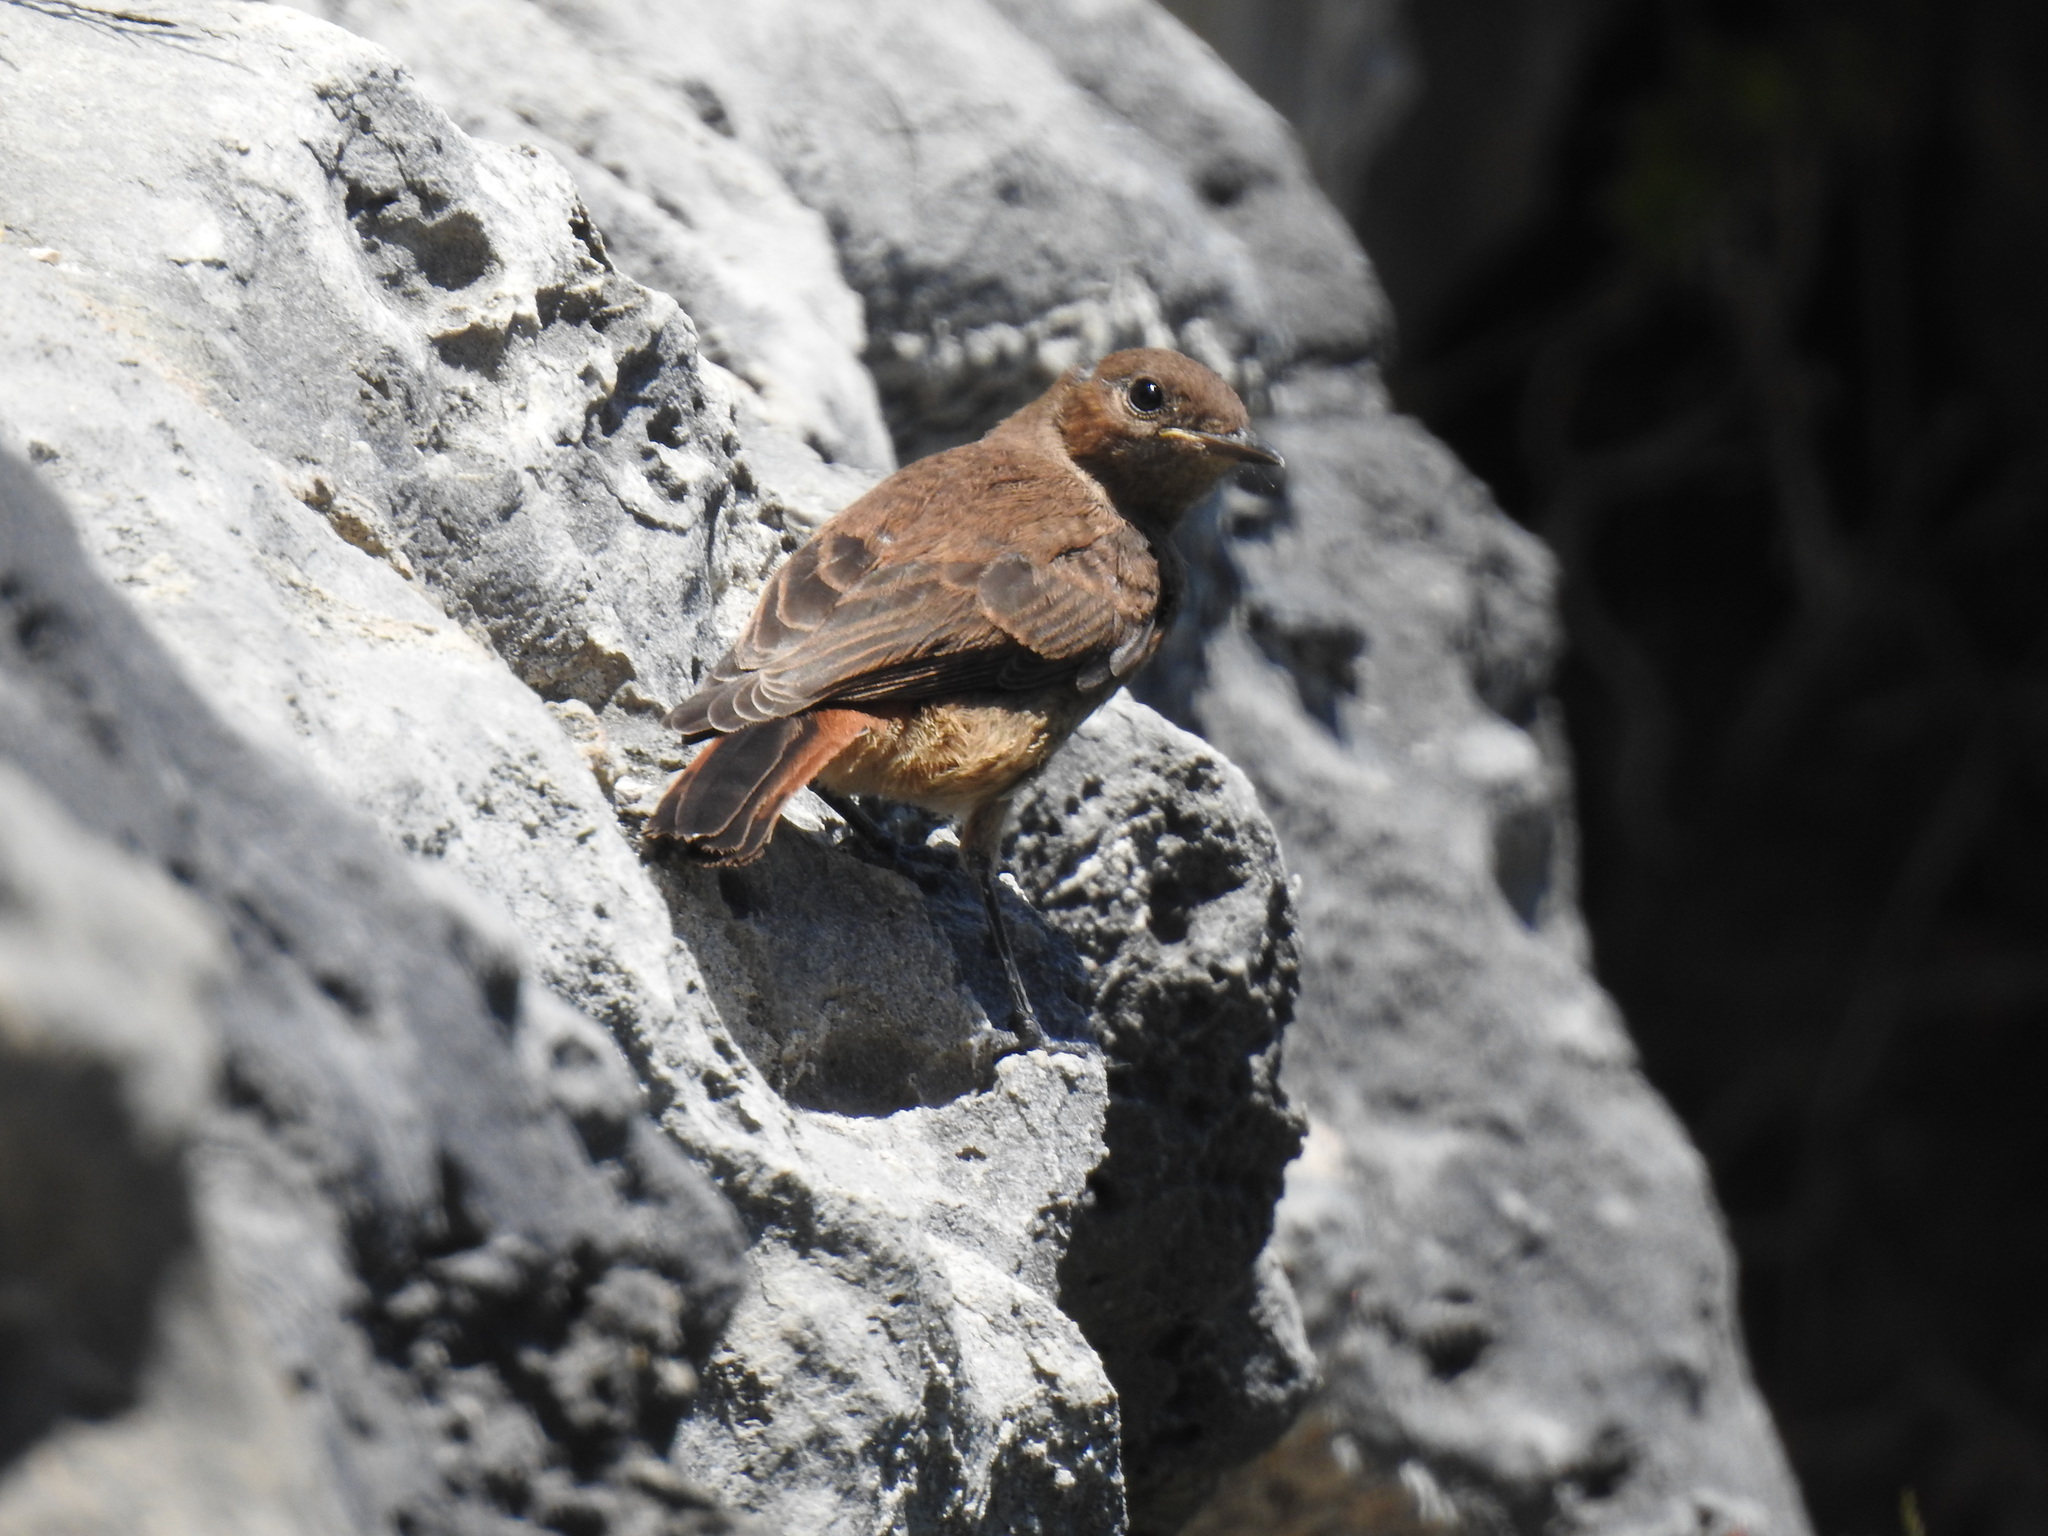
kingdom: Animalia
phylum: Chordata
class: Aves
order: Passeriformes
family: Muscicapidae
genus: Oenanthe
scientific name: Oenanthe familiaris
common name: Familiar chat
